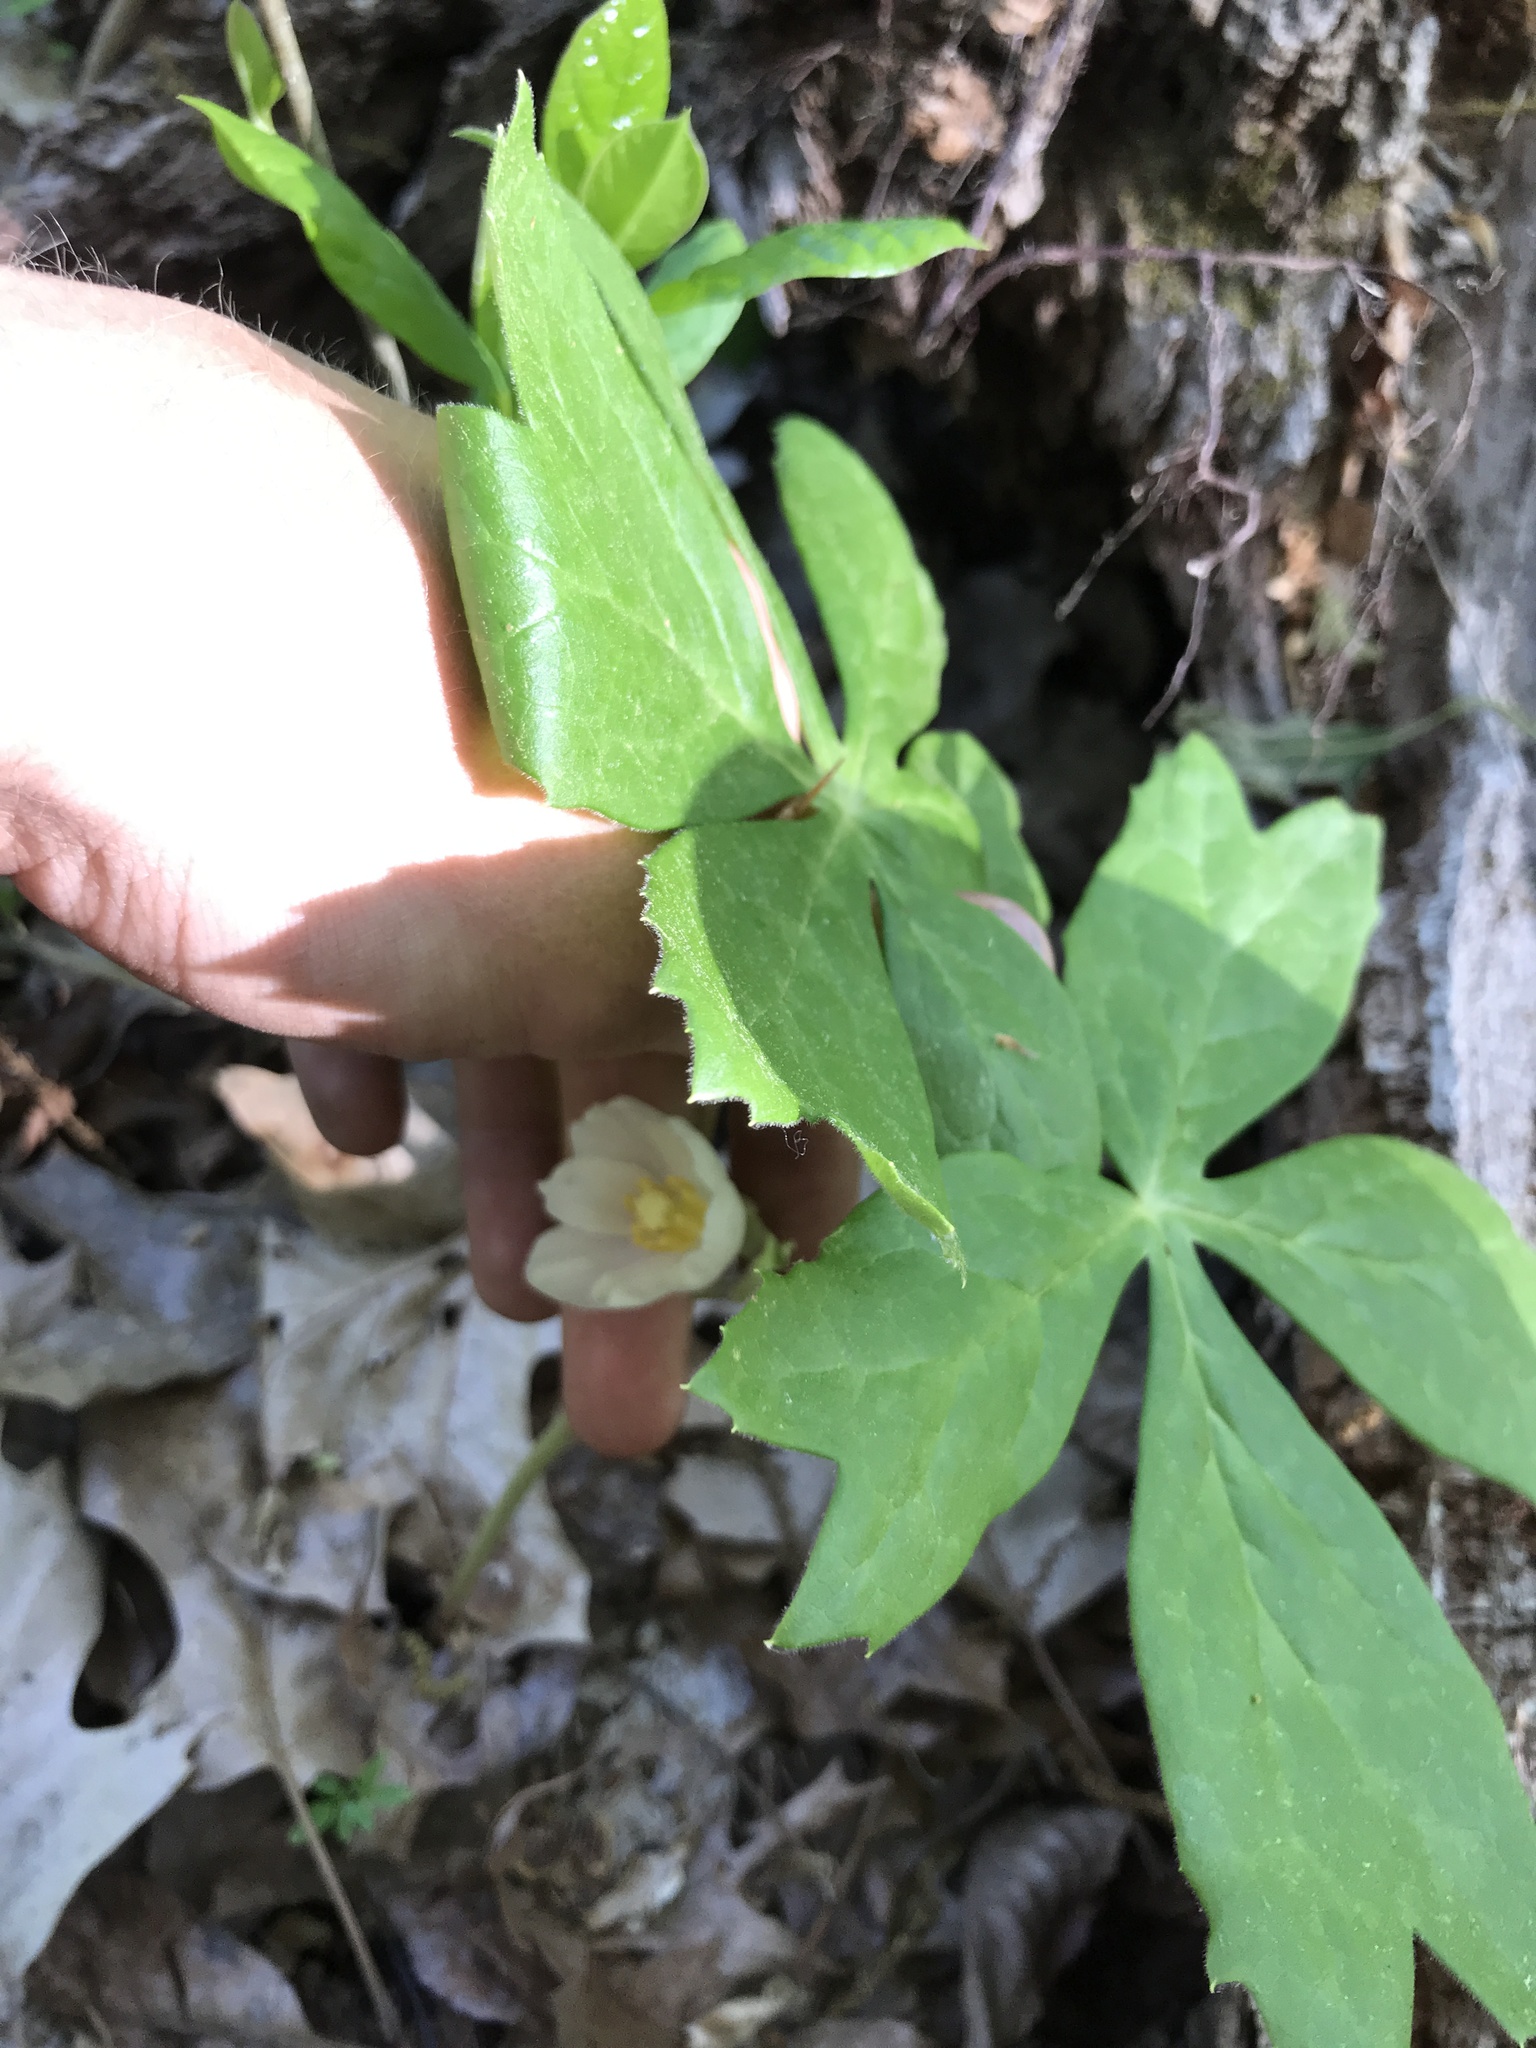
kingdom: Plantae
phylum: Tracheophyta
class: Magnoliopsida
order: Ranunculales
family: Berberidaceae
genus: Podophyllum
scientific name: Podophyllum peltatum
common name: Wild mandrake
